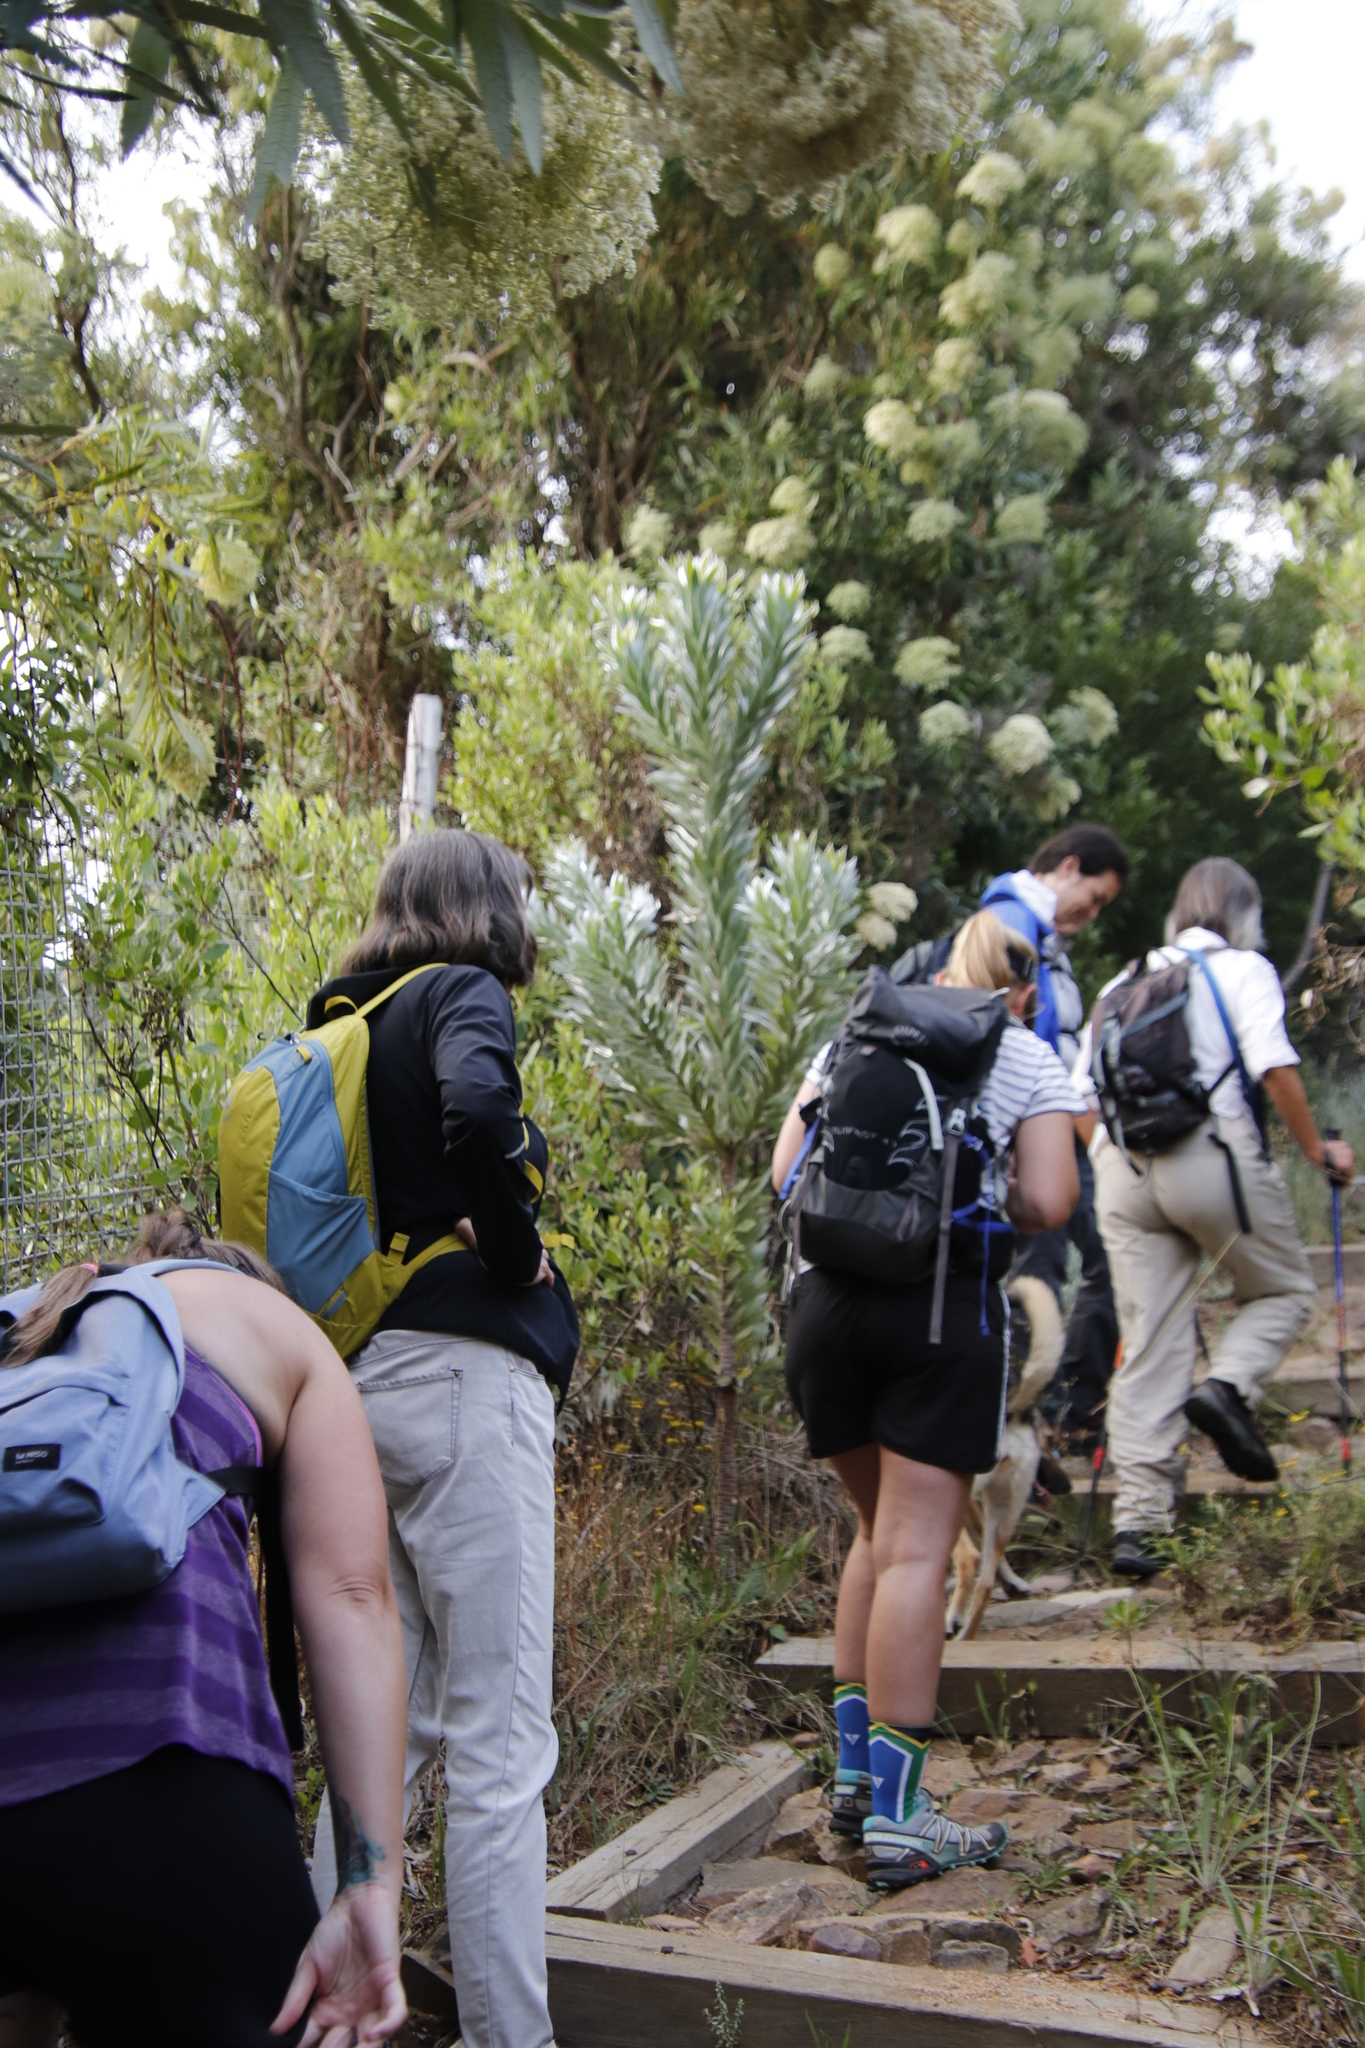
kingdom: Plantae
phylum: Tracheophyta
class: Magnoliopsida
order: Proteales
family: Proteaceae
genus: Leucadendron
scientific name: Leucadendron argenteum
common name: Cape silver tree
